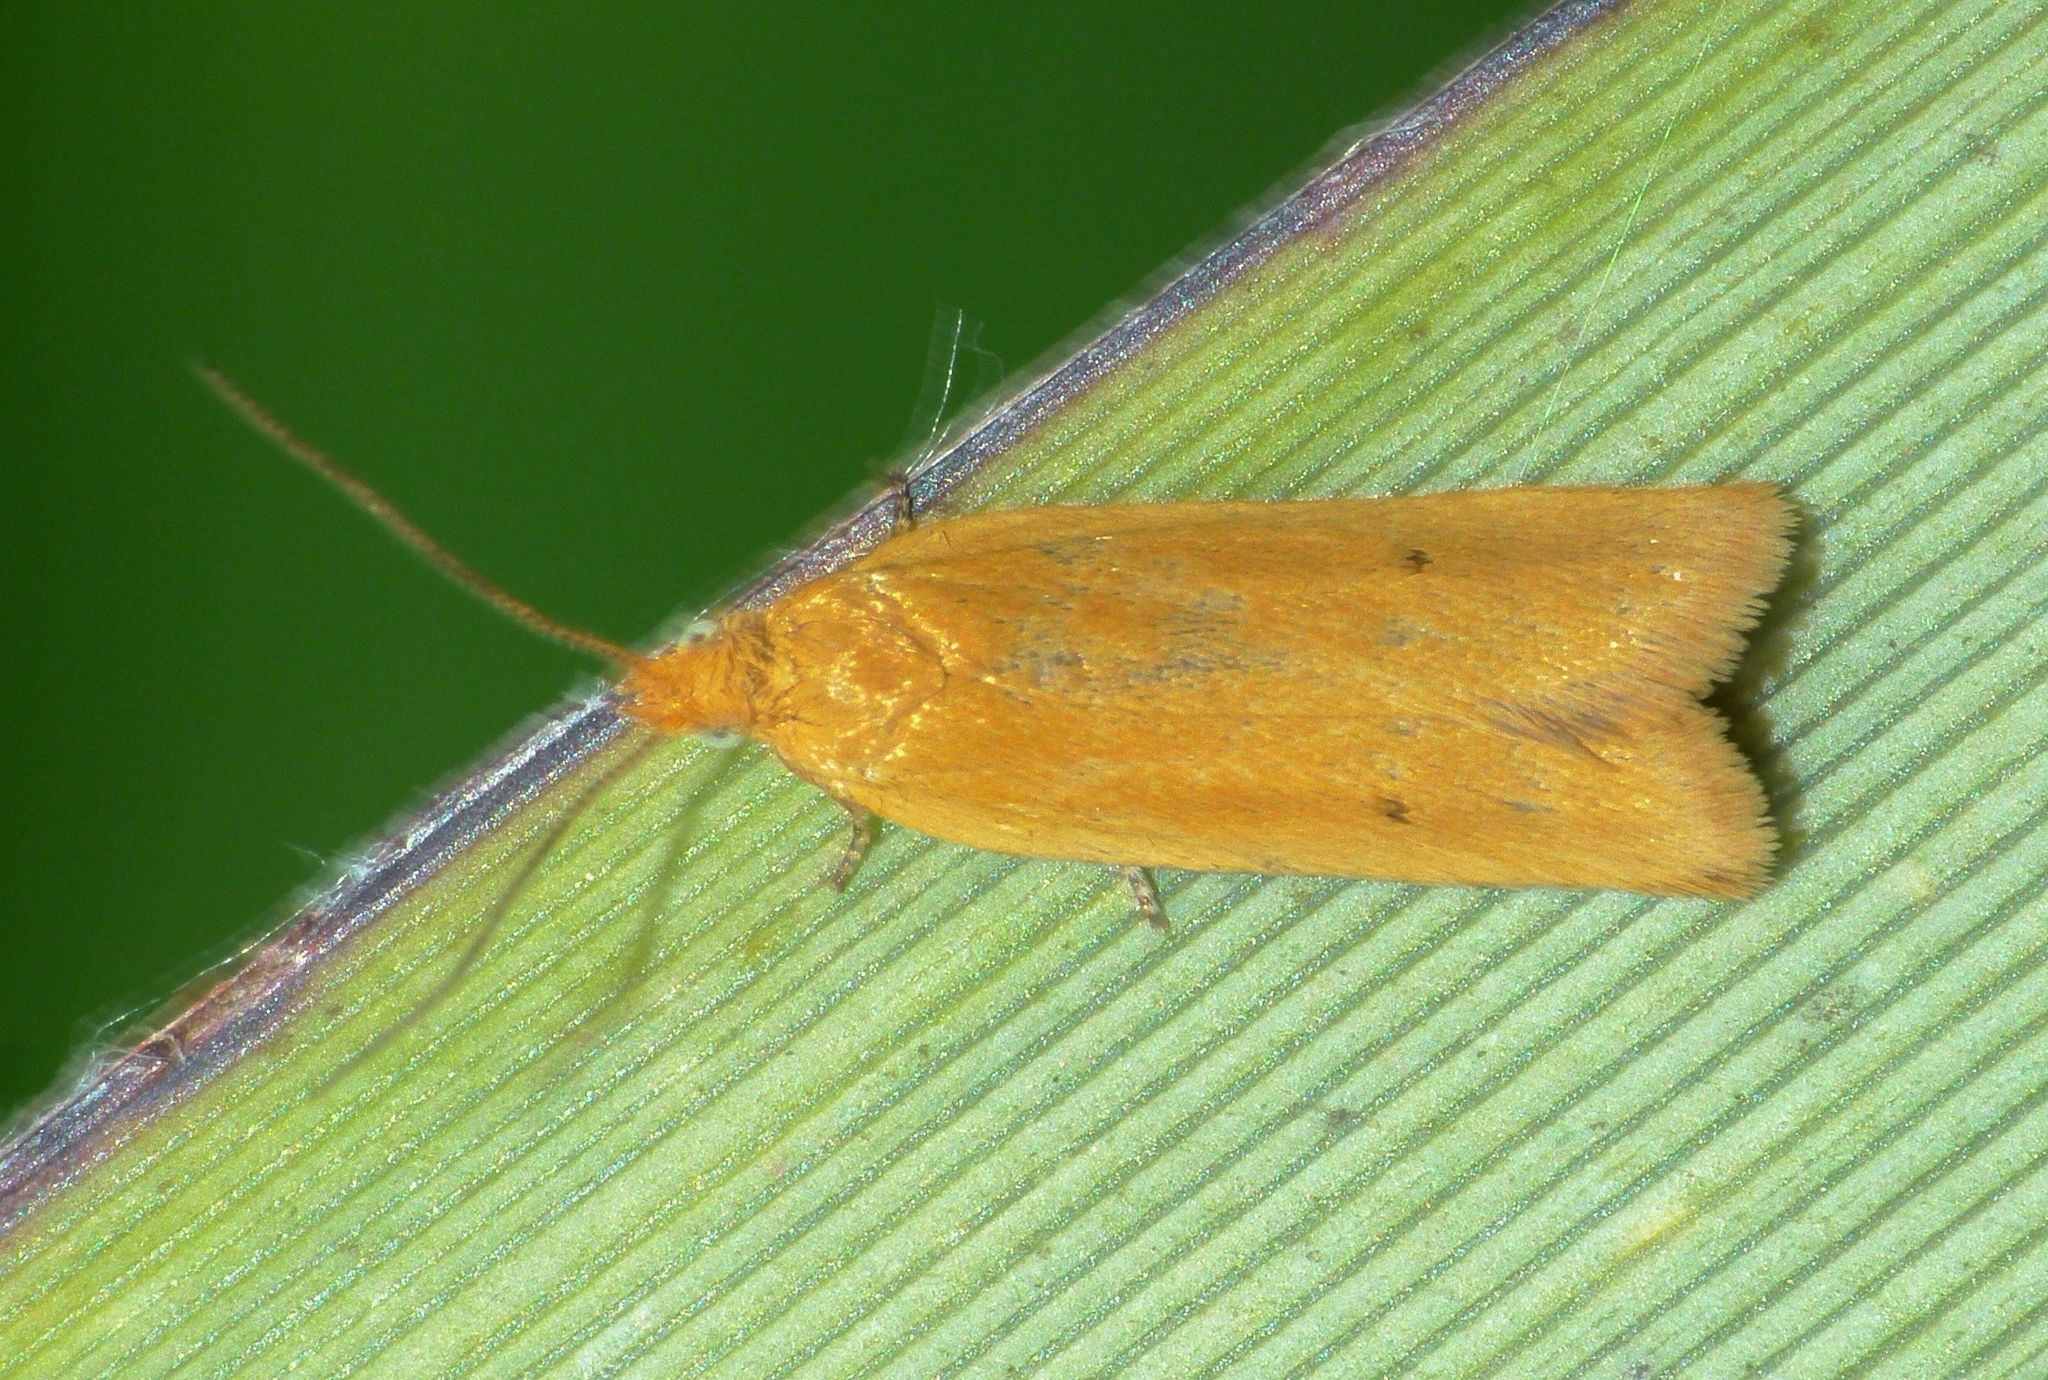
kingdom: Animalia
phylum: Arthropoda
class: Insecta
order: Lepidoptera
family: Tortricidae
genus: Epichorista
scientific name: Epichorista siriana
